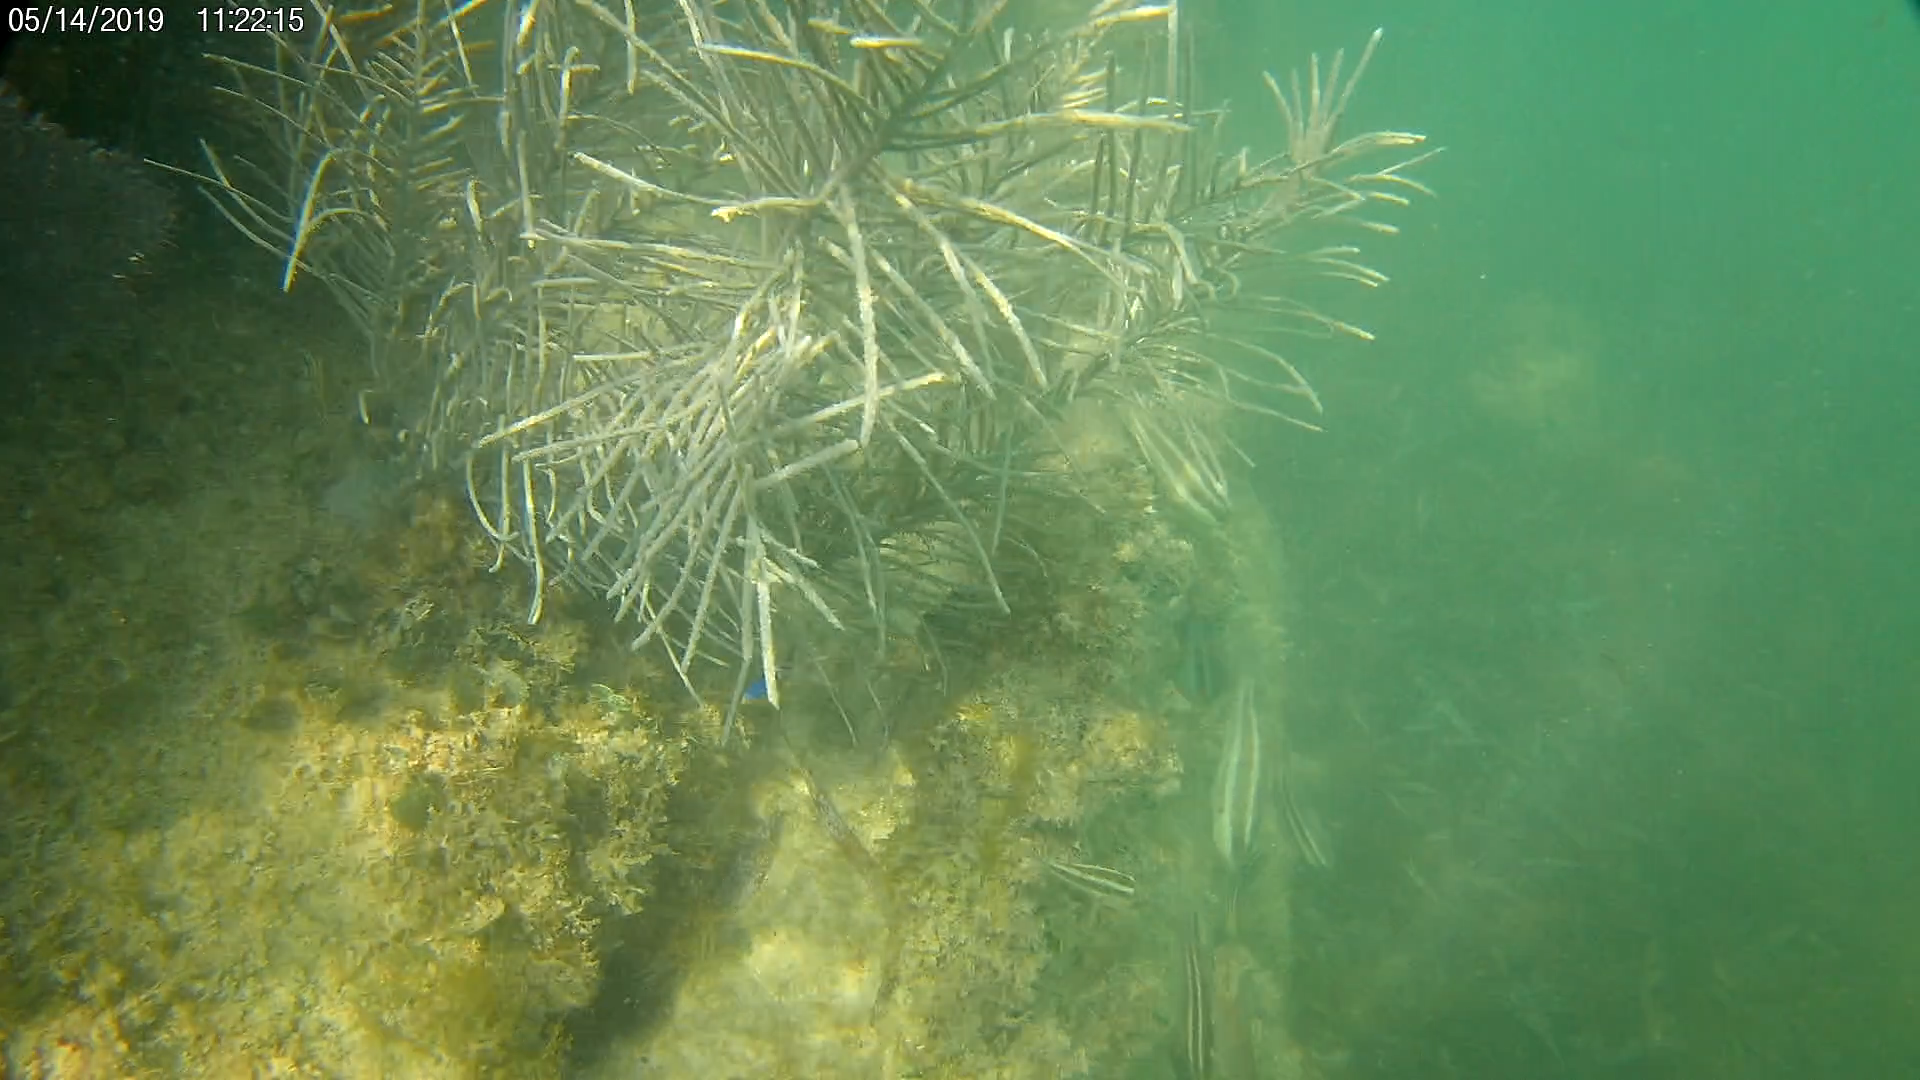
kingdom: Animalia
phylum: Chordata
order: Perciformes
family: Labridae
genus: Thalassoma
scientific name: Thalassoma bifasciatum
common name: Bluehead wrasse
